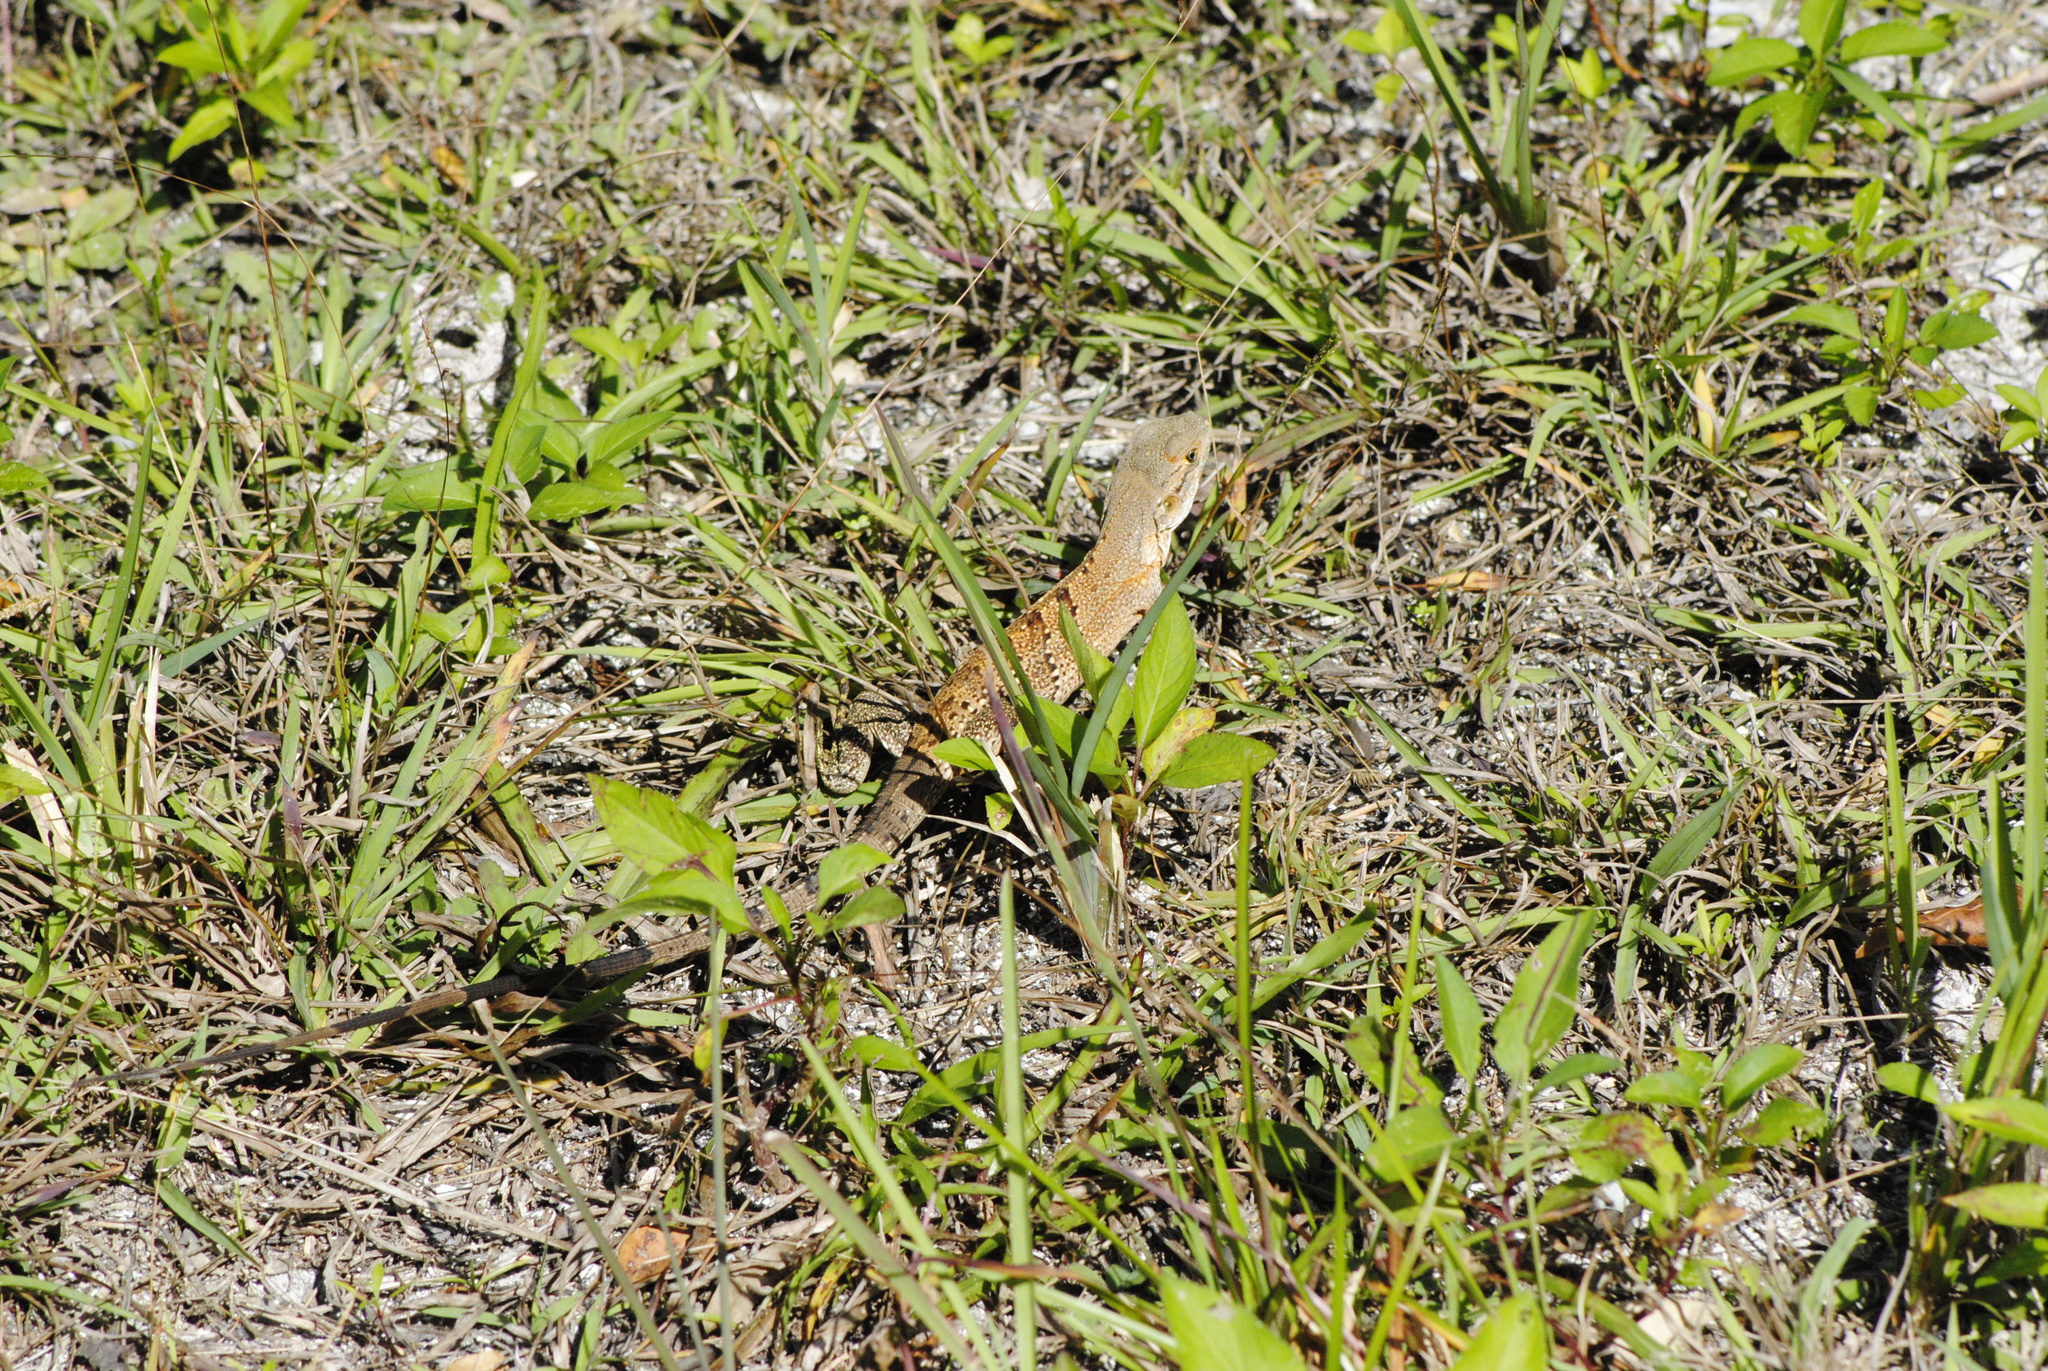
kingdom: Animalia
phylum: Chordata
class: Squamata
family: Iguanidae
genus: Ctenosaura
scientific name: Ctenosaura similis
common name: Black spiny-tailed iguana
